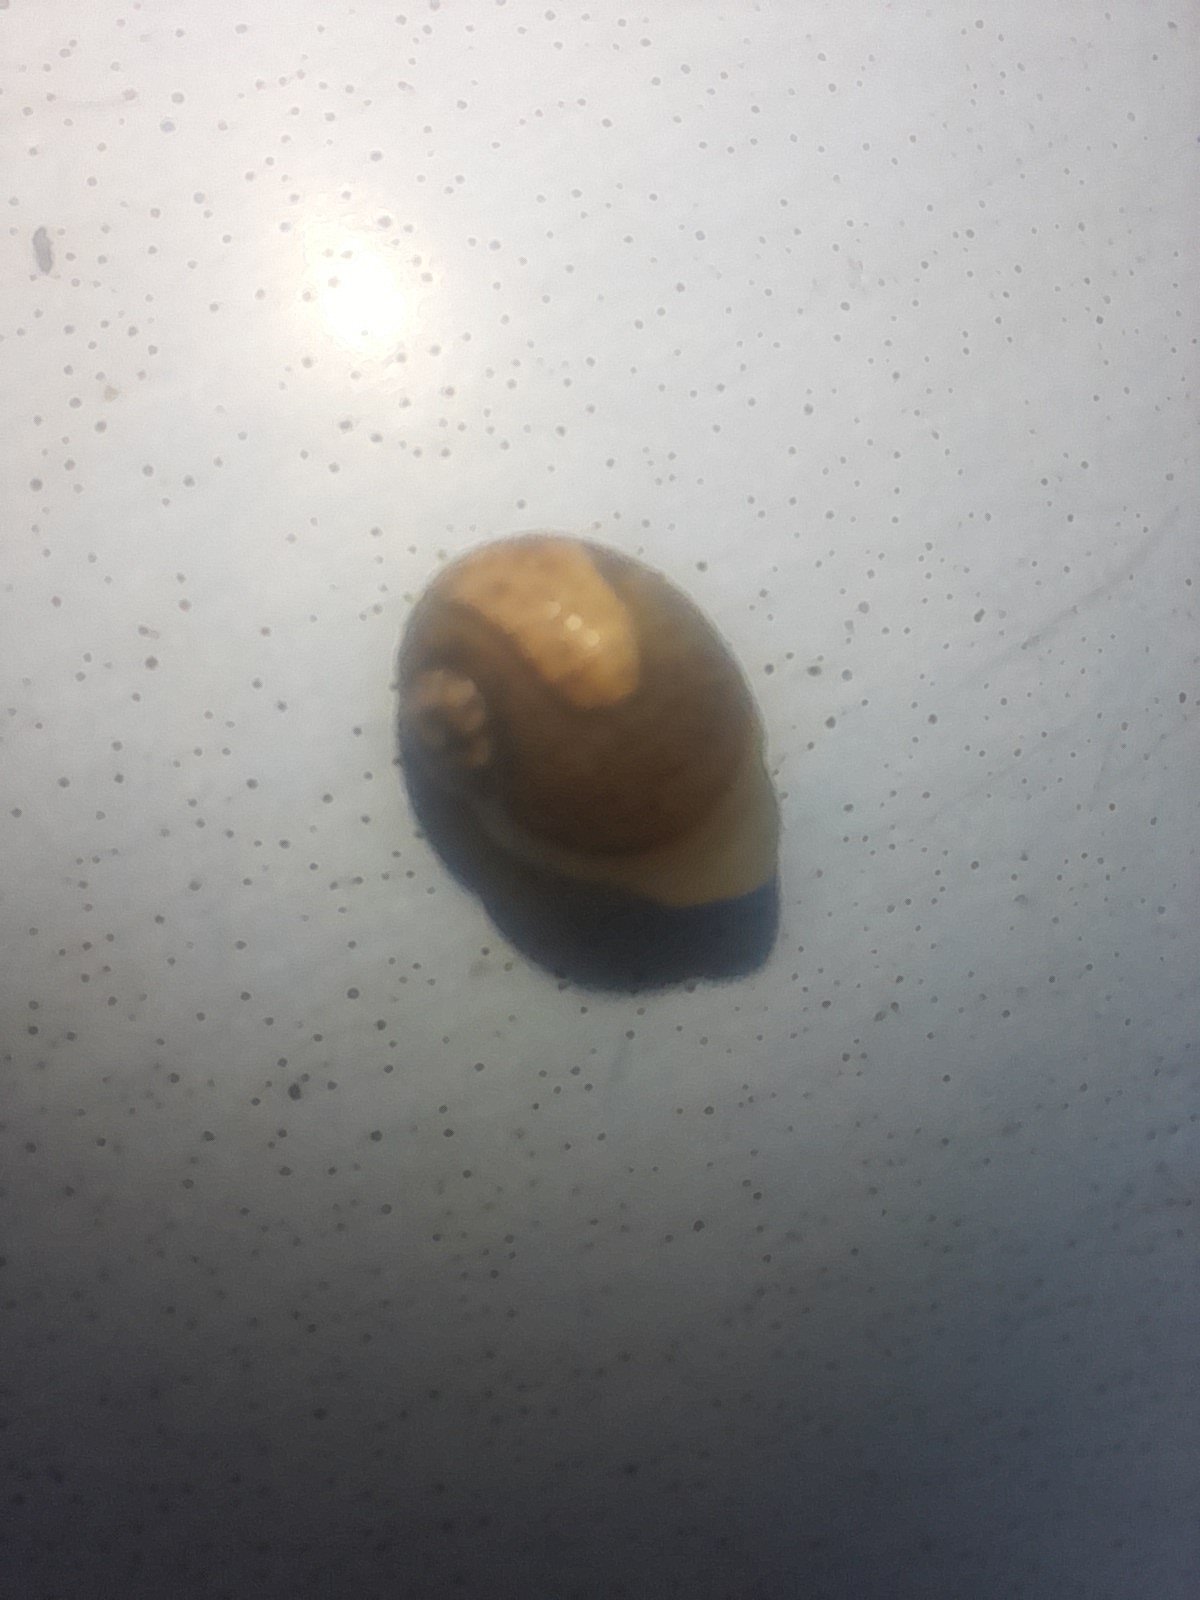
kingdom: Animalia
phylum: Mollusca
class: Gastropoda
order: Stylommatophora
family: Helicidae
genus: Cantareus
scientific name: Cantareus apertus
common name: Green gardensnail
